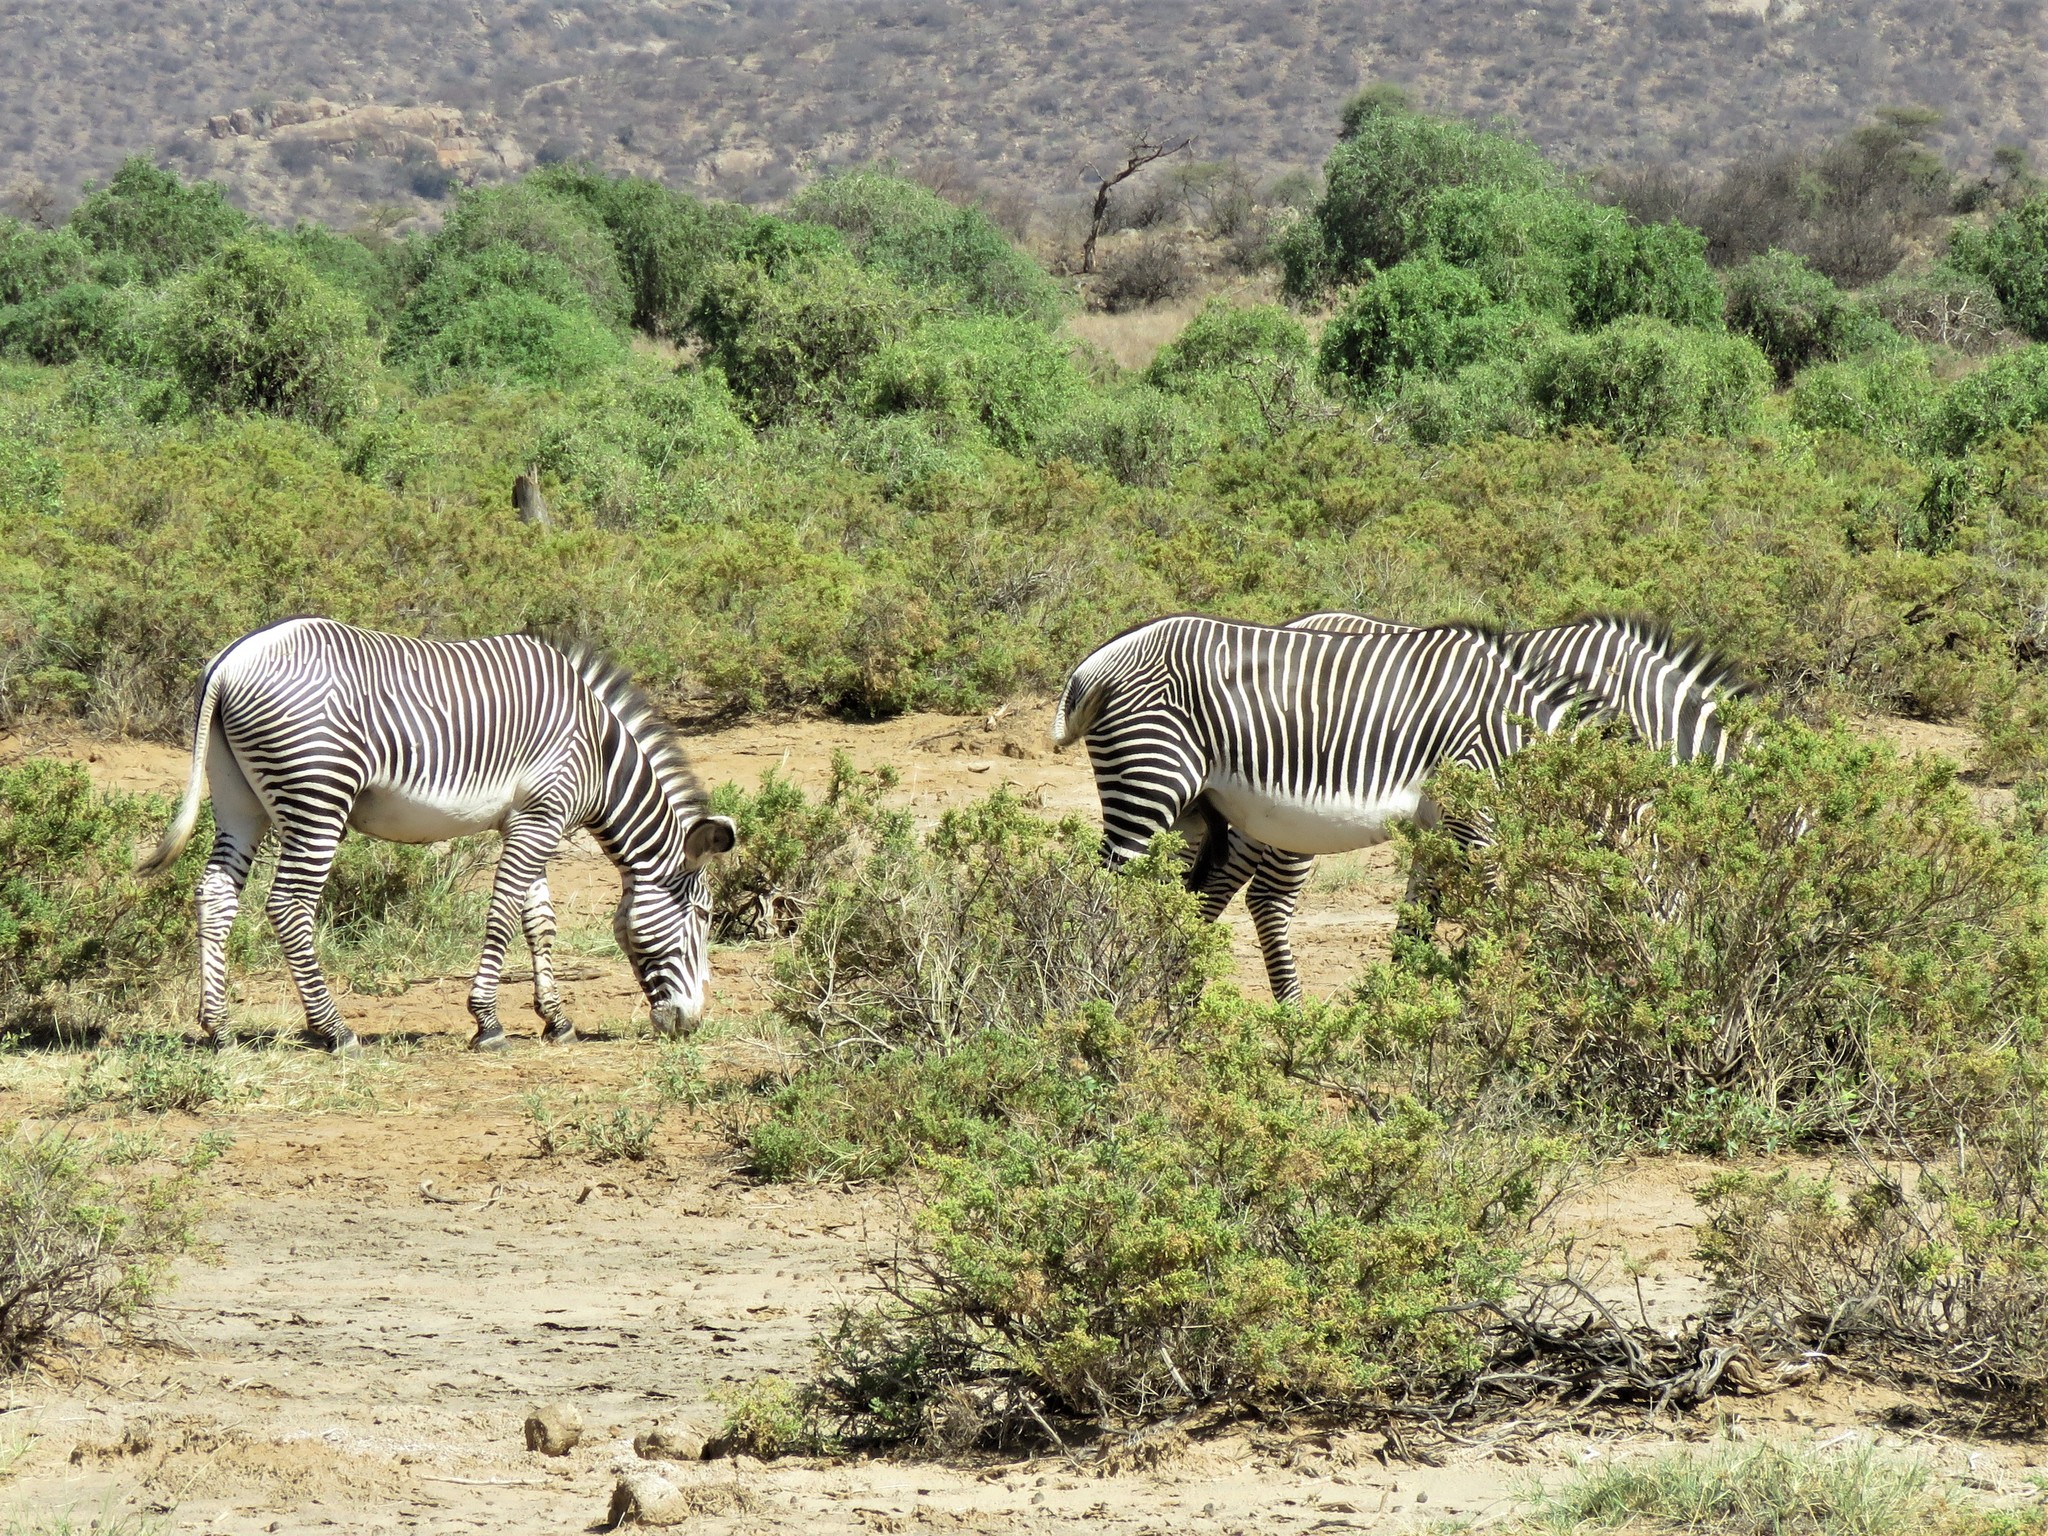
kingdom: Animalia
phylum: Chordata
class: Mammalia
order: Perissodactyla
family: Equidae
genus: Equus
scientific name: Equus grevyi
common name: Grevy's zebra
